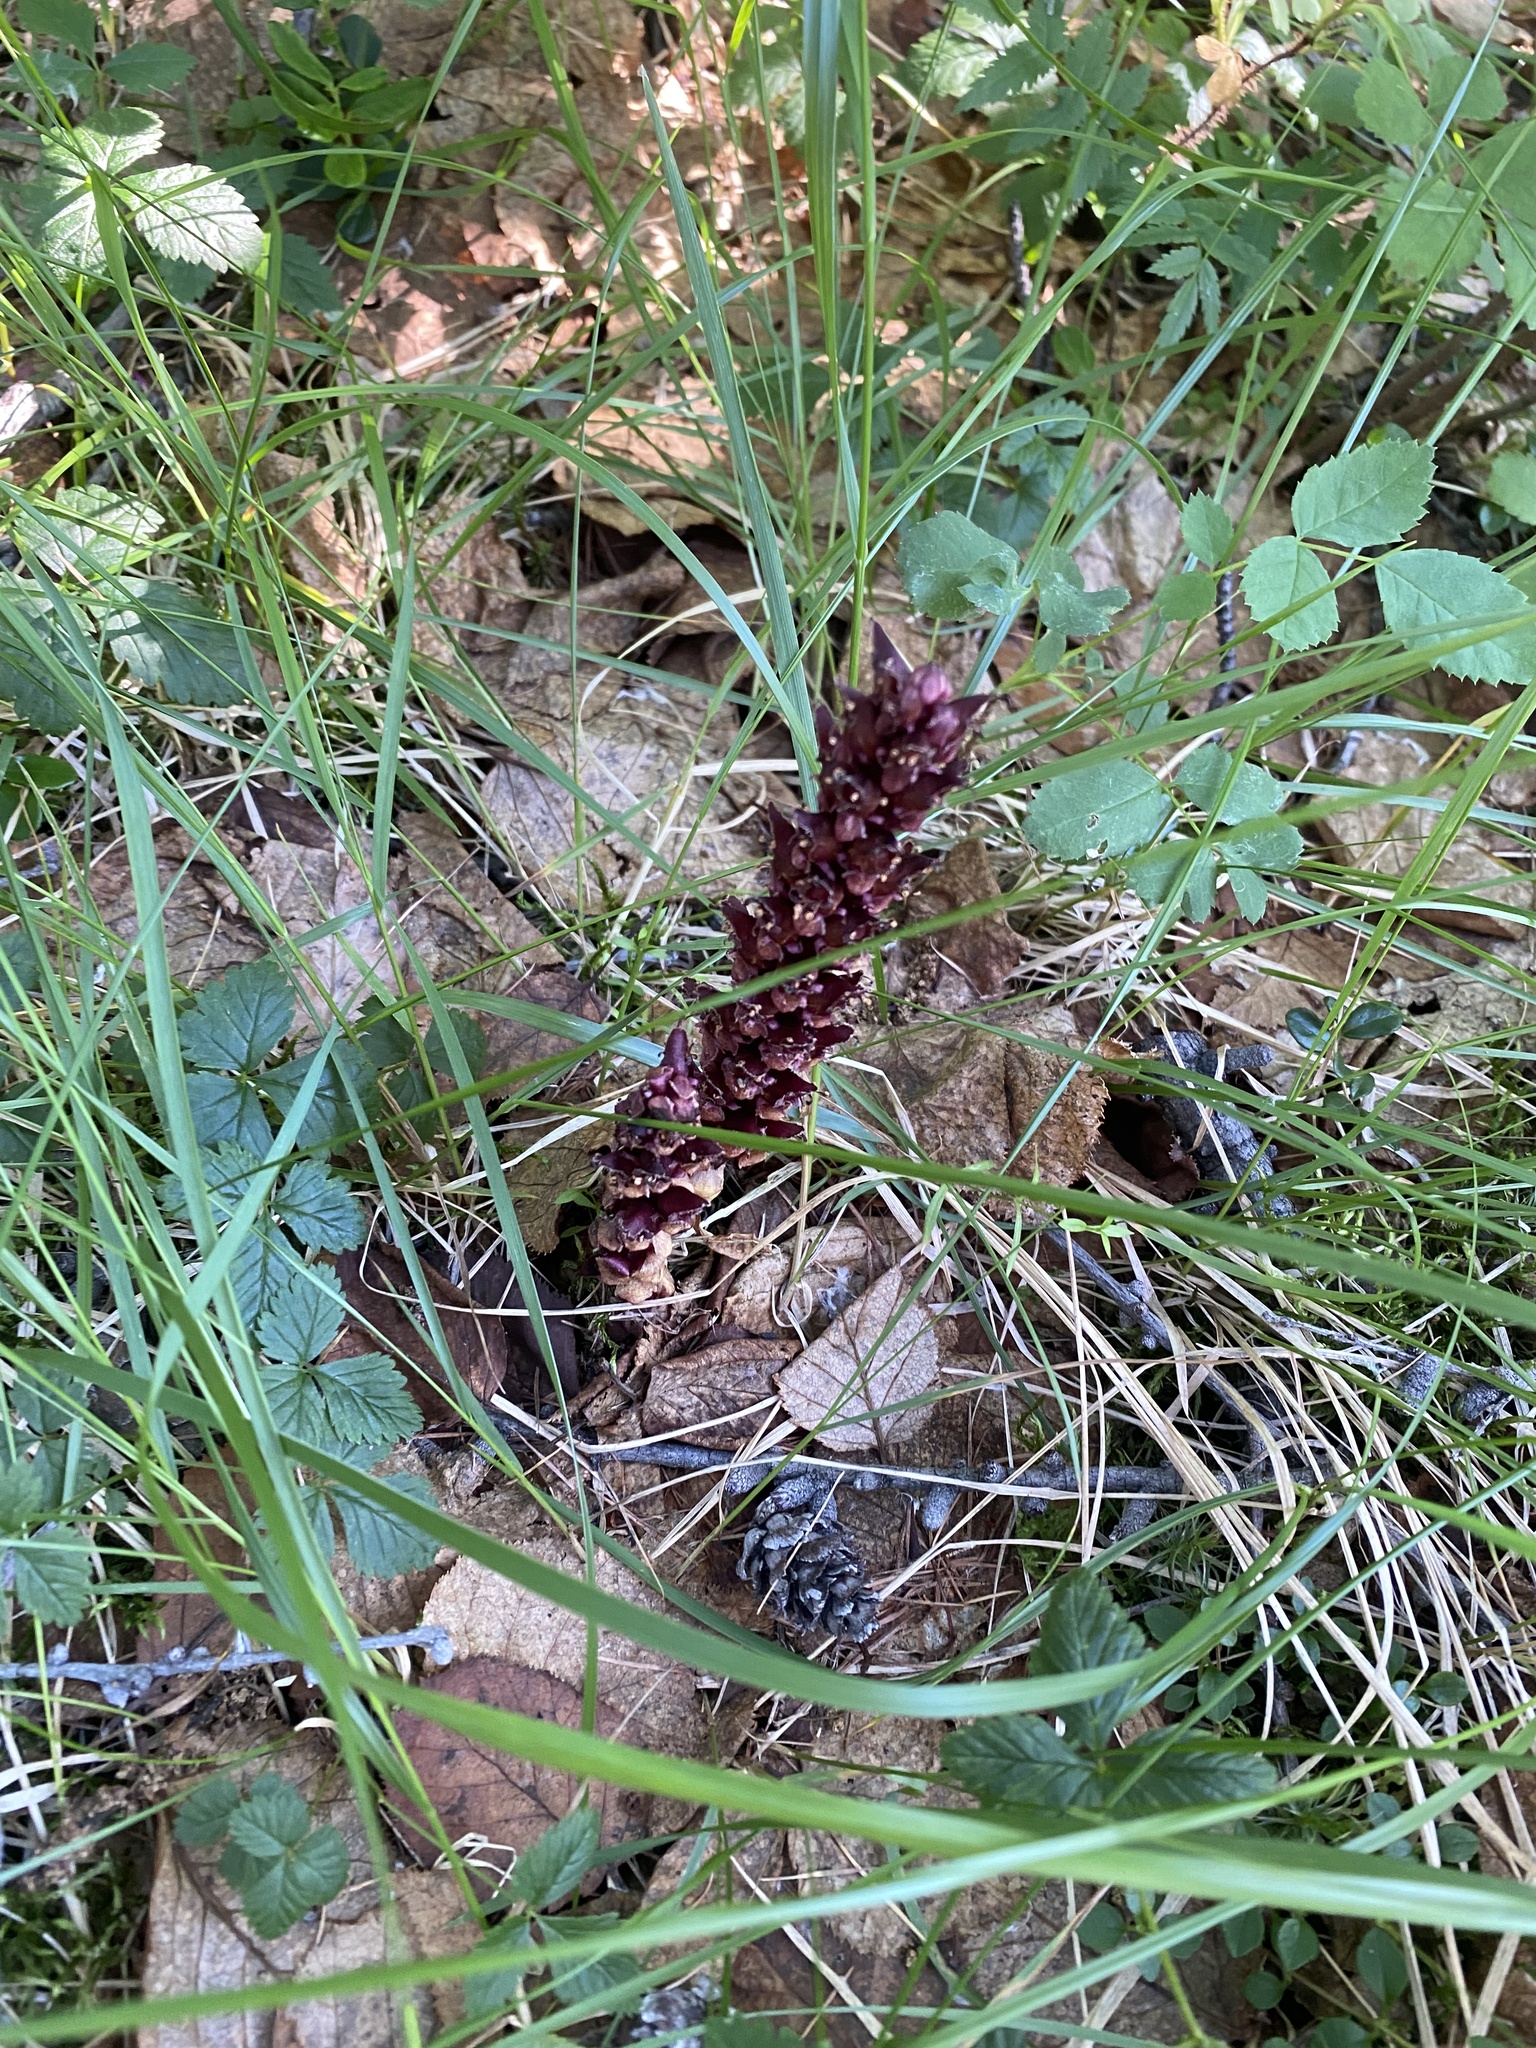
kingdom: Plantae
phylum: Tracheophyta
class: Magnoliopsida
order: Lamiales
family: Orobanchaceae
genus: Boschniakia
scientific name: Boschniakia rossica
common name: Poque
